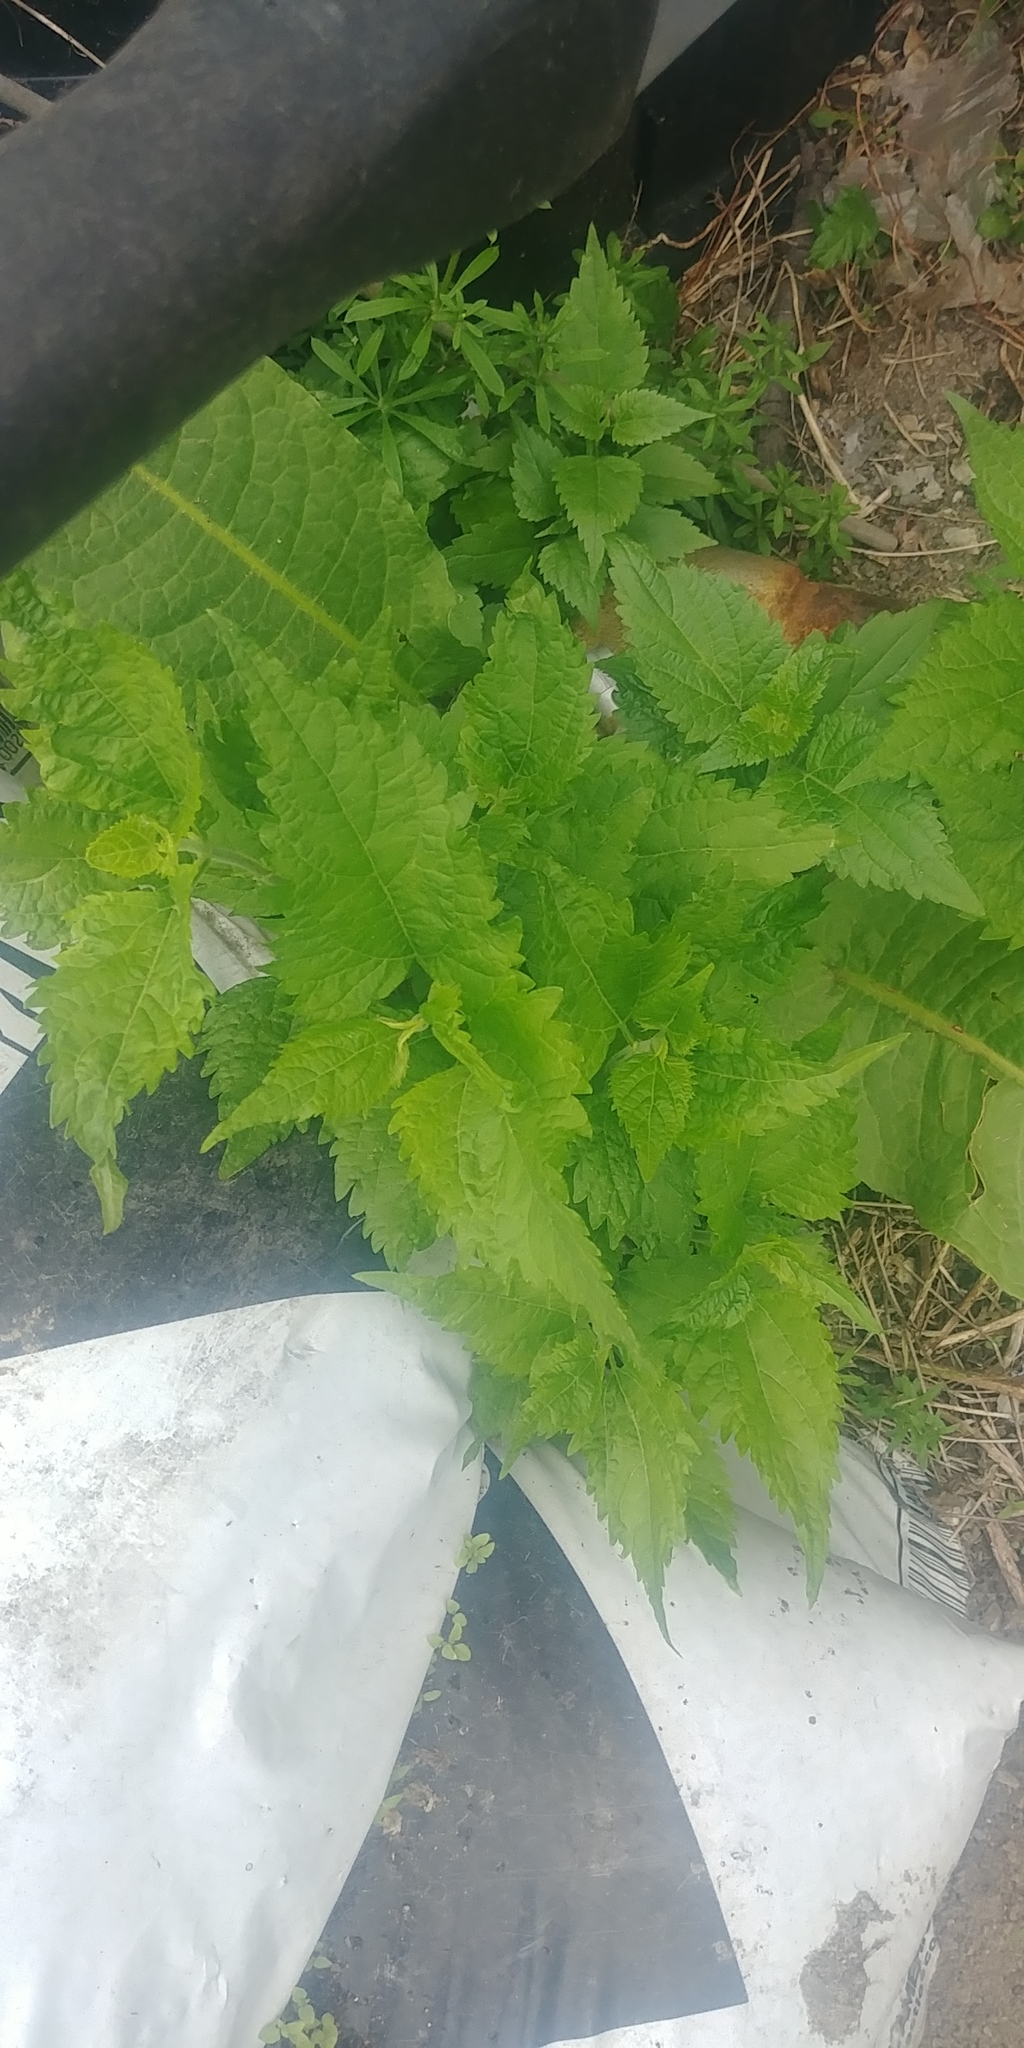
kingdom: Plantae
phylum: Tracheophyta
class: Magnoliopsida
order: Asterales
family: Asteraceae
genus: Ageratina
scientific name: Ageratina altissima
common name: White snakeroot
